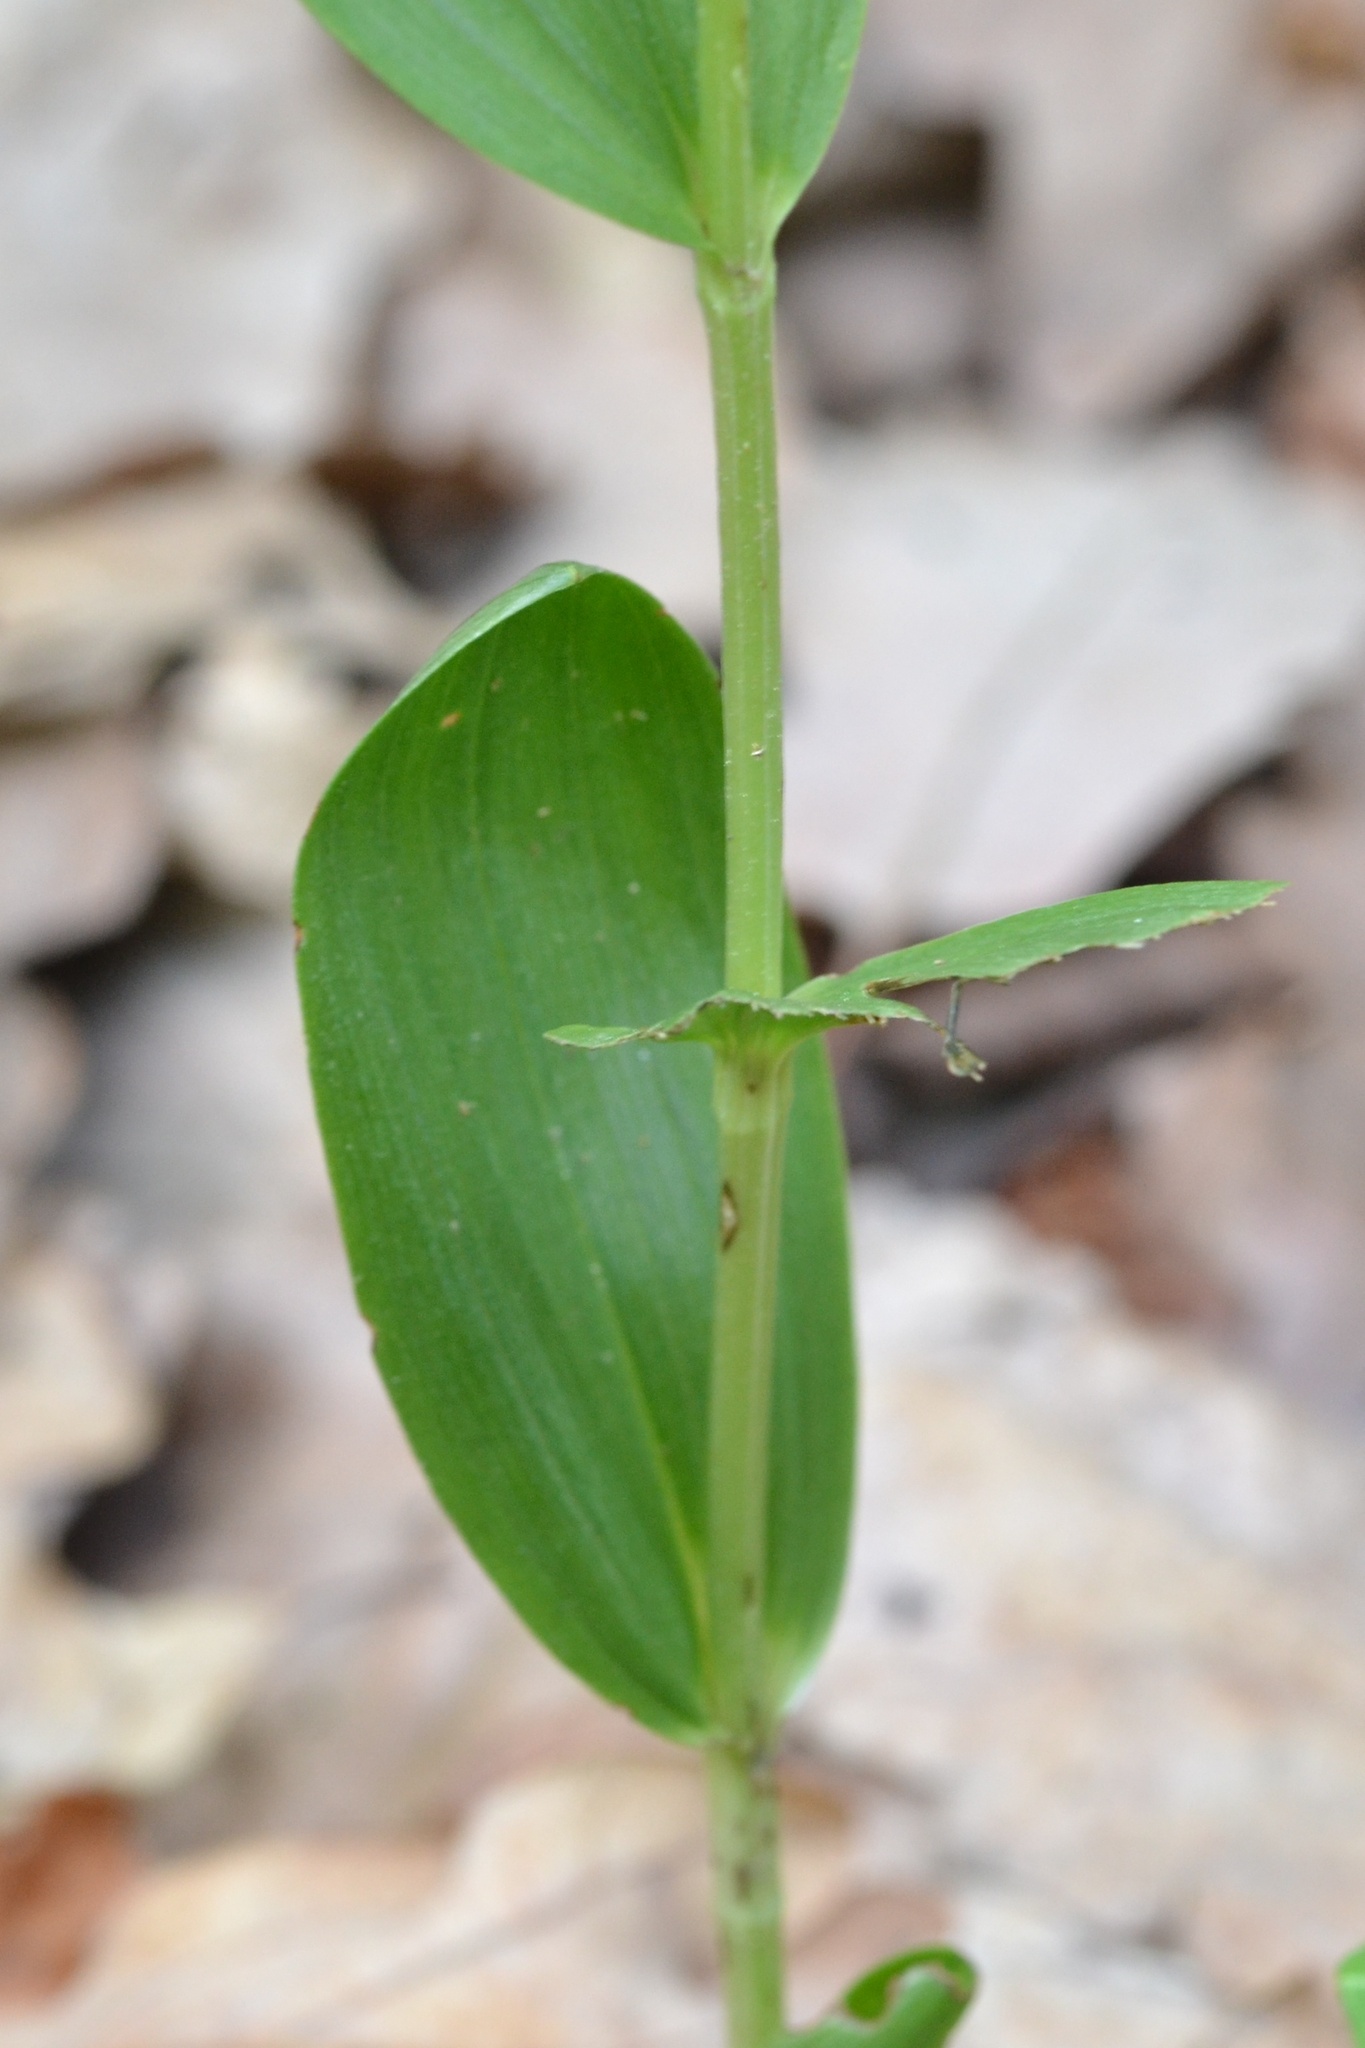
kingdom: Plantae
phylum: Tracheophyta
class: Liliopsida
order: Asparagales
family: Orchidaceae
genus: Cephalanthera
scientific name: Cephalanthera damasonium
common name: White helleborine
